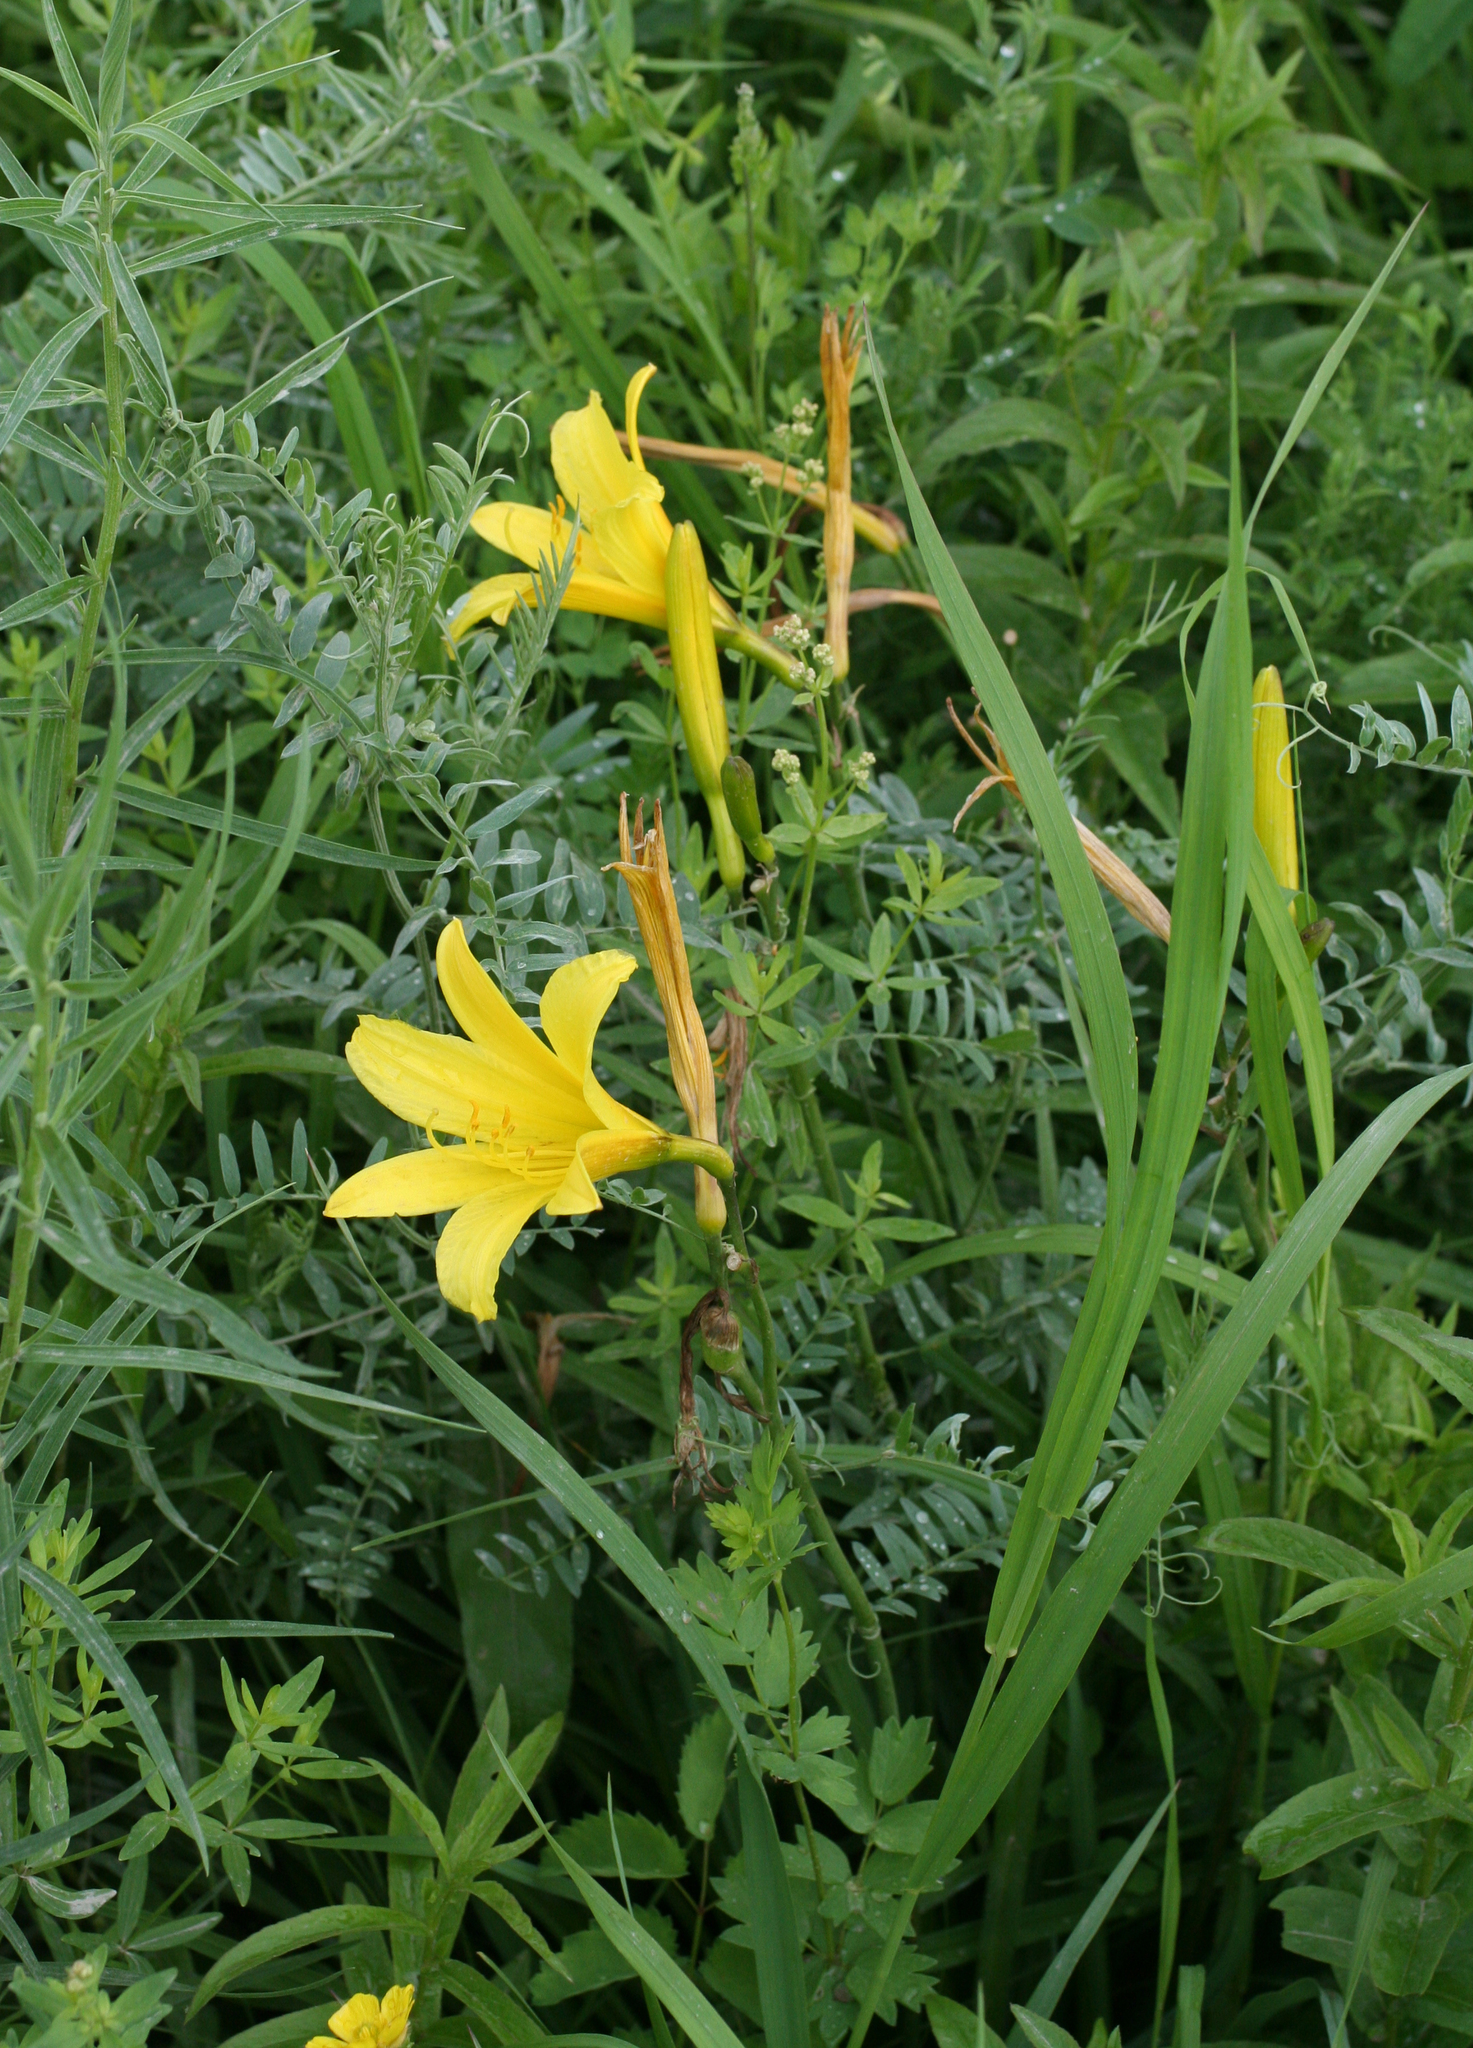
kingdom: Plantae
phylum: Tracheophyta
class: Liliopsida
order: Asparagales
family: Asphodelaceae
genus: Hemerocallis
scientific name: Hemerocallis minor
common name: Small daylily
